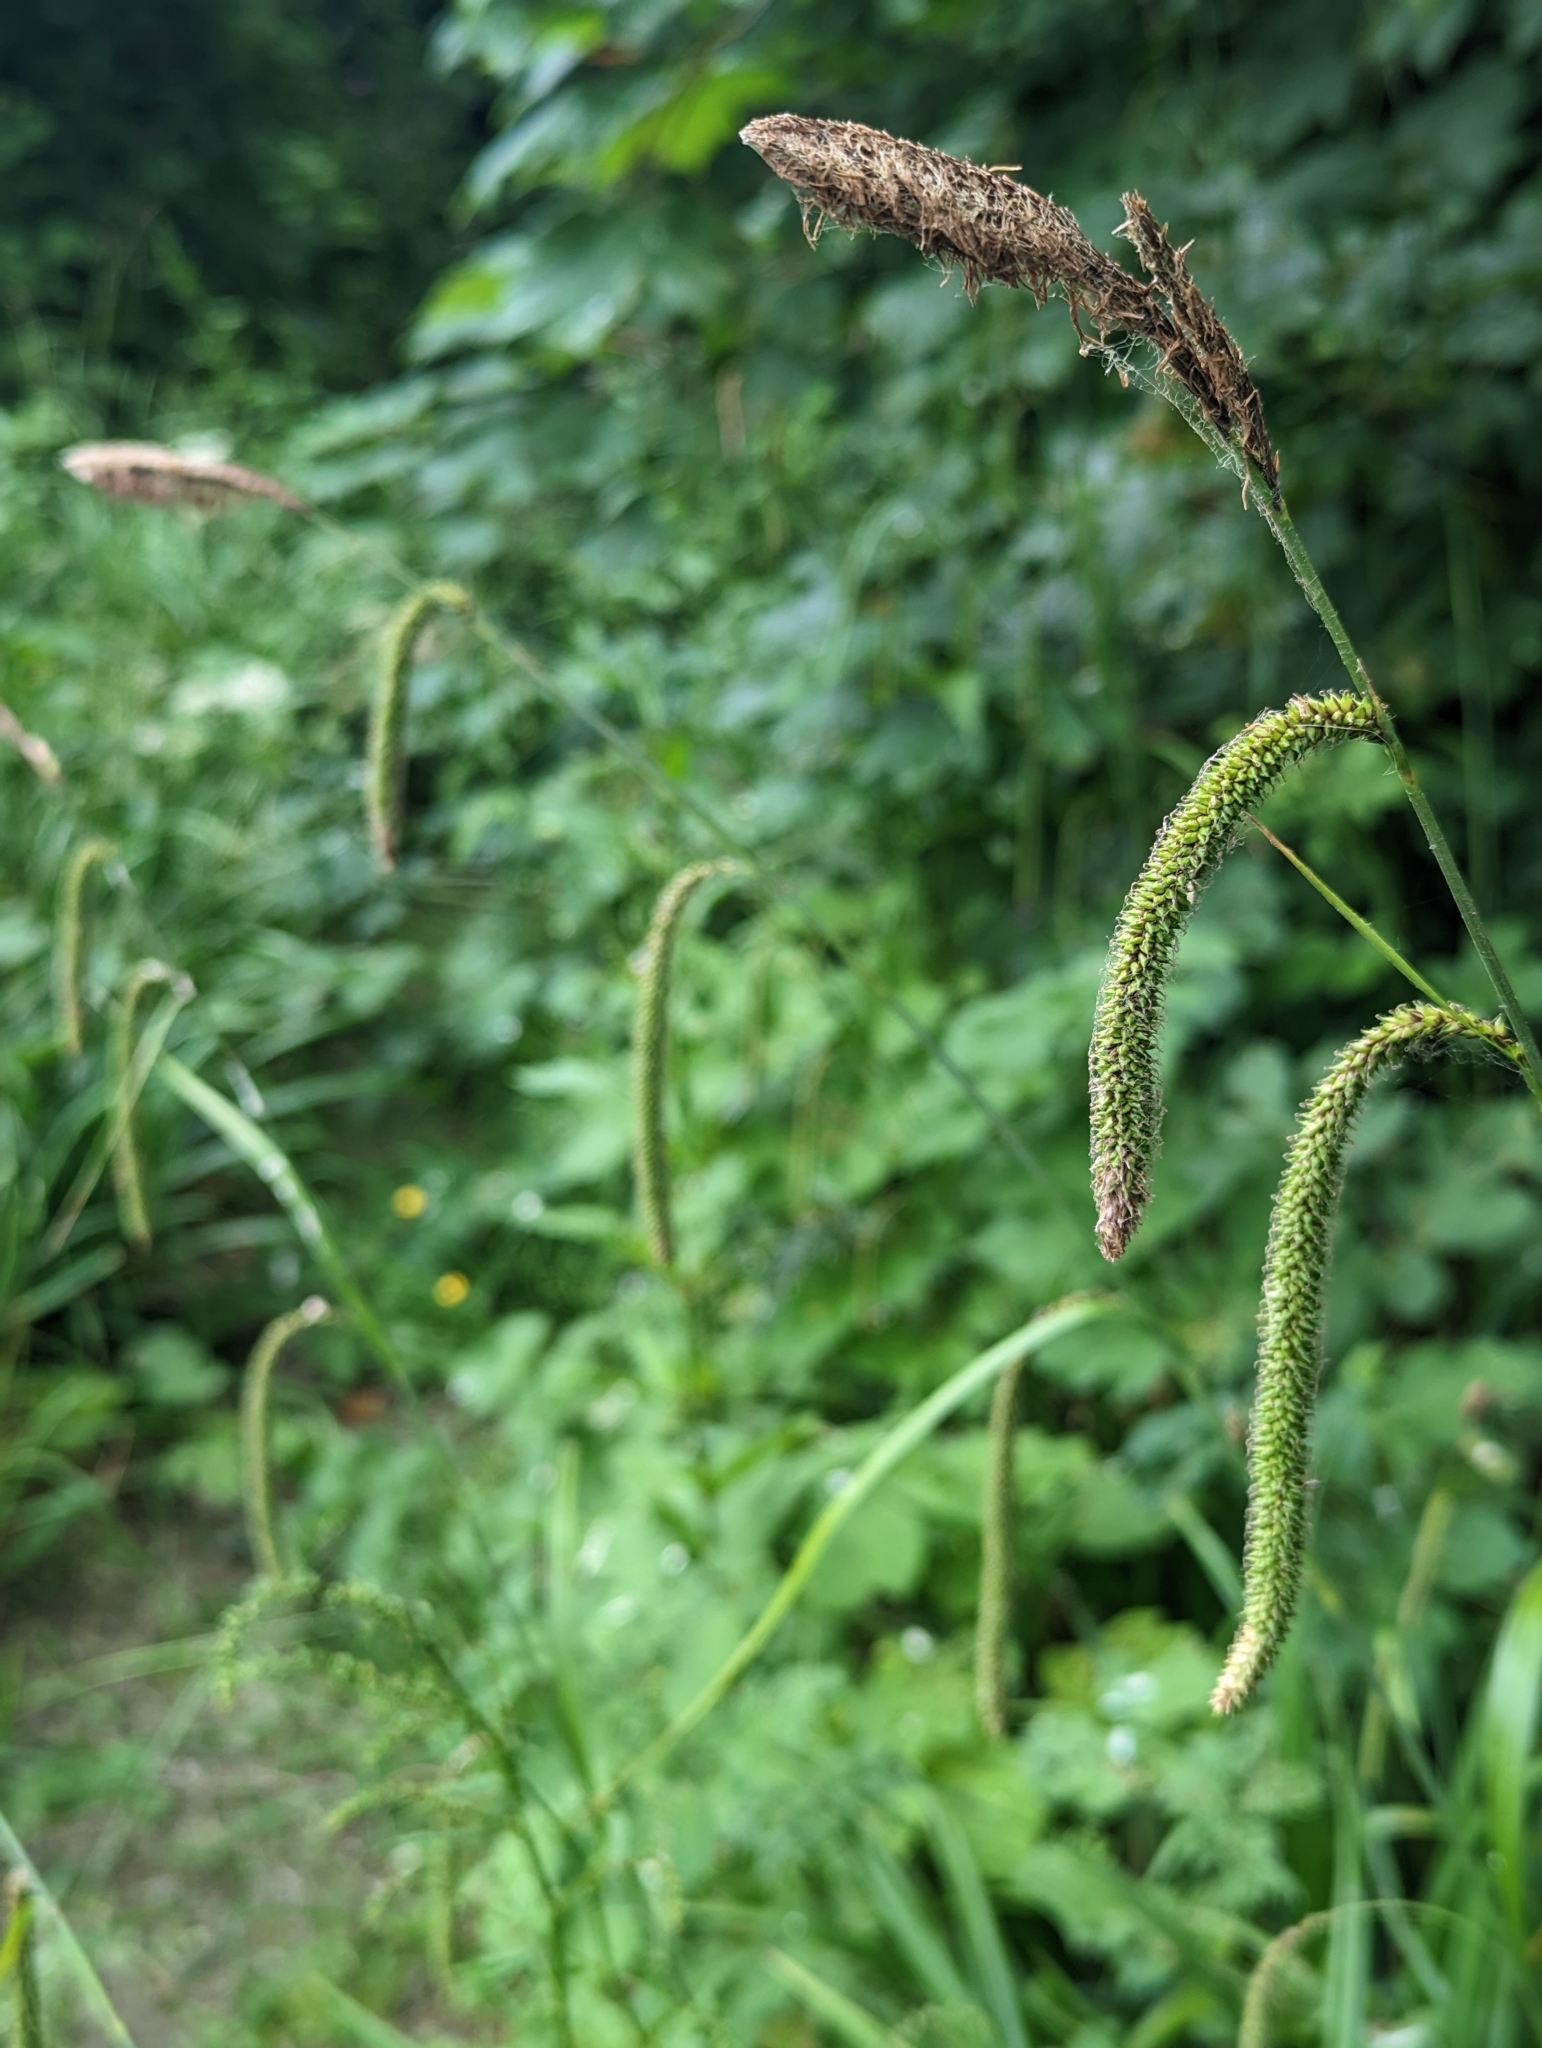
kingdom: Plantae
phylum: Tracheophyta
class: Liliopsida
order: Poales
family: Cyperaceae
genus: Carex
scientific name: Carex pendula
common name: Pendulous sedge
